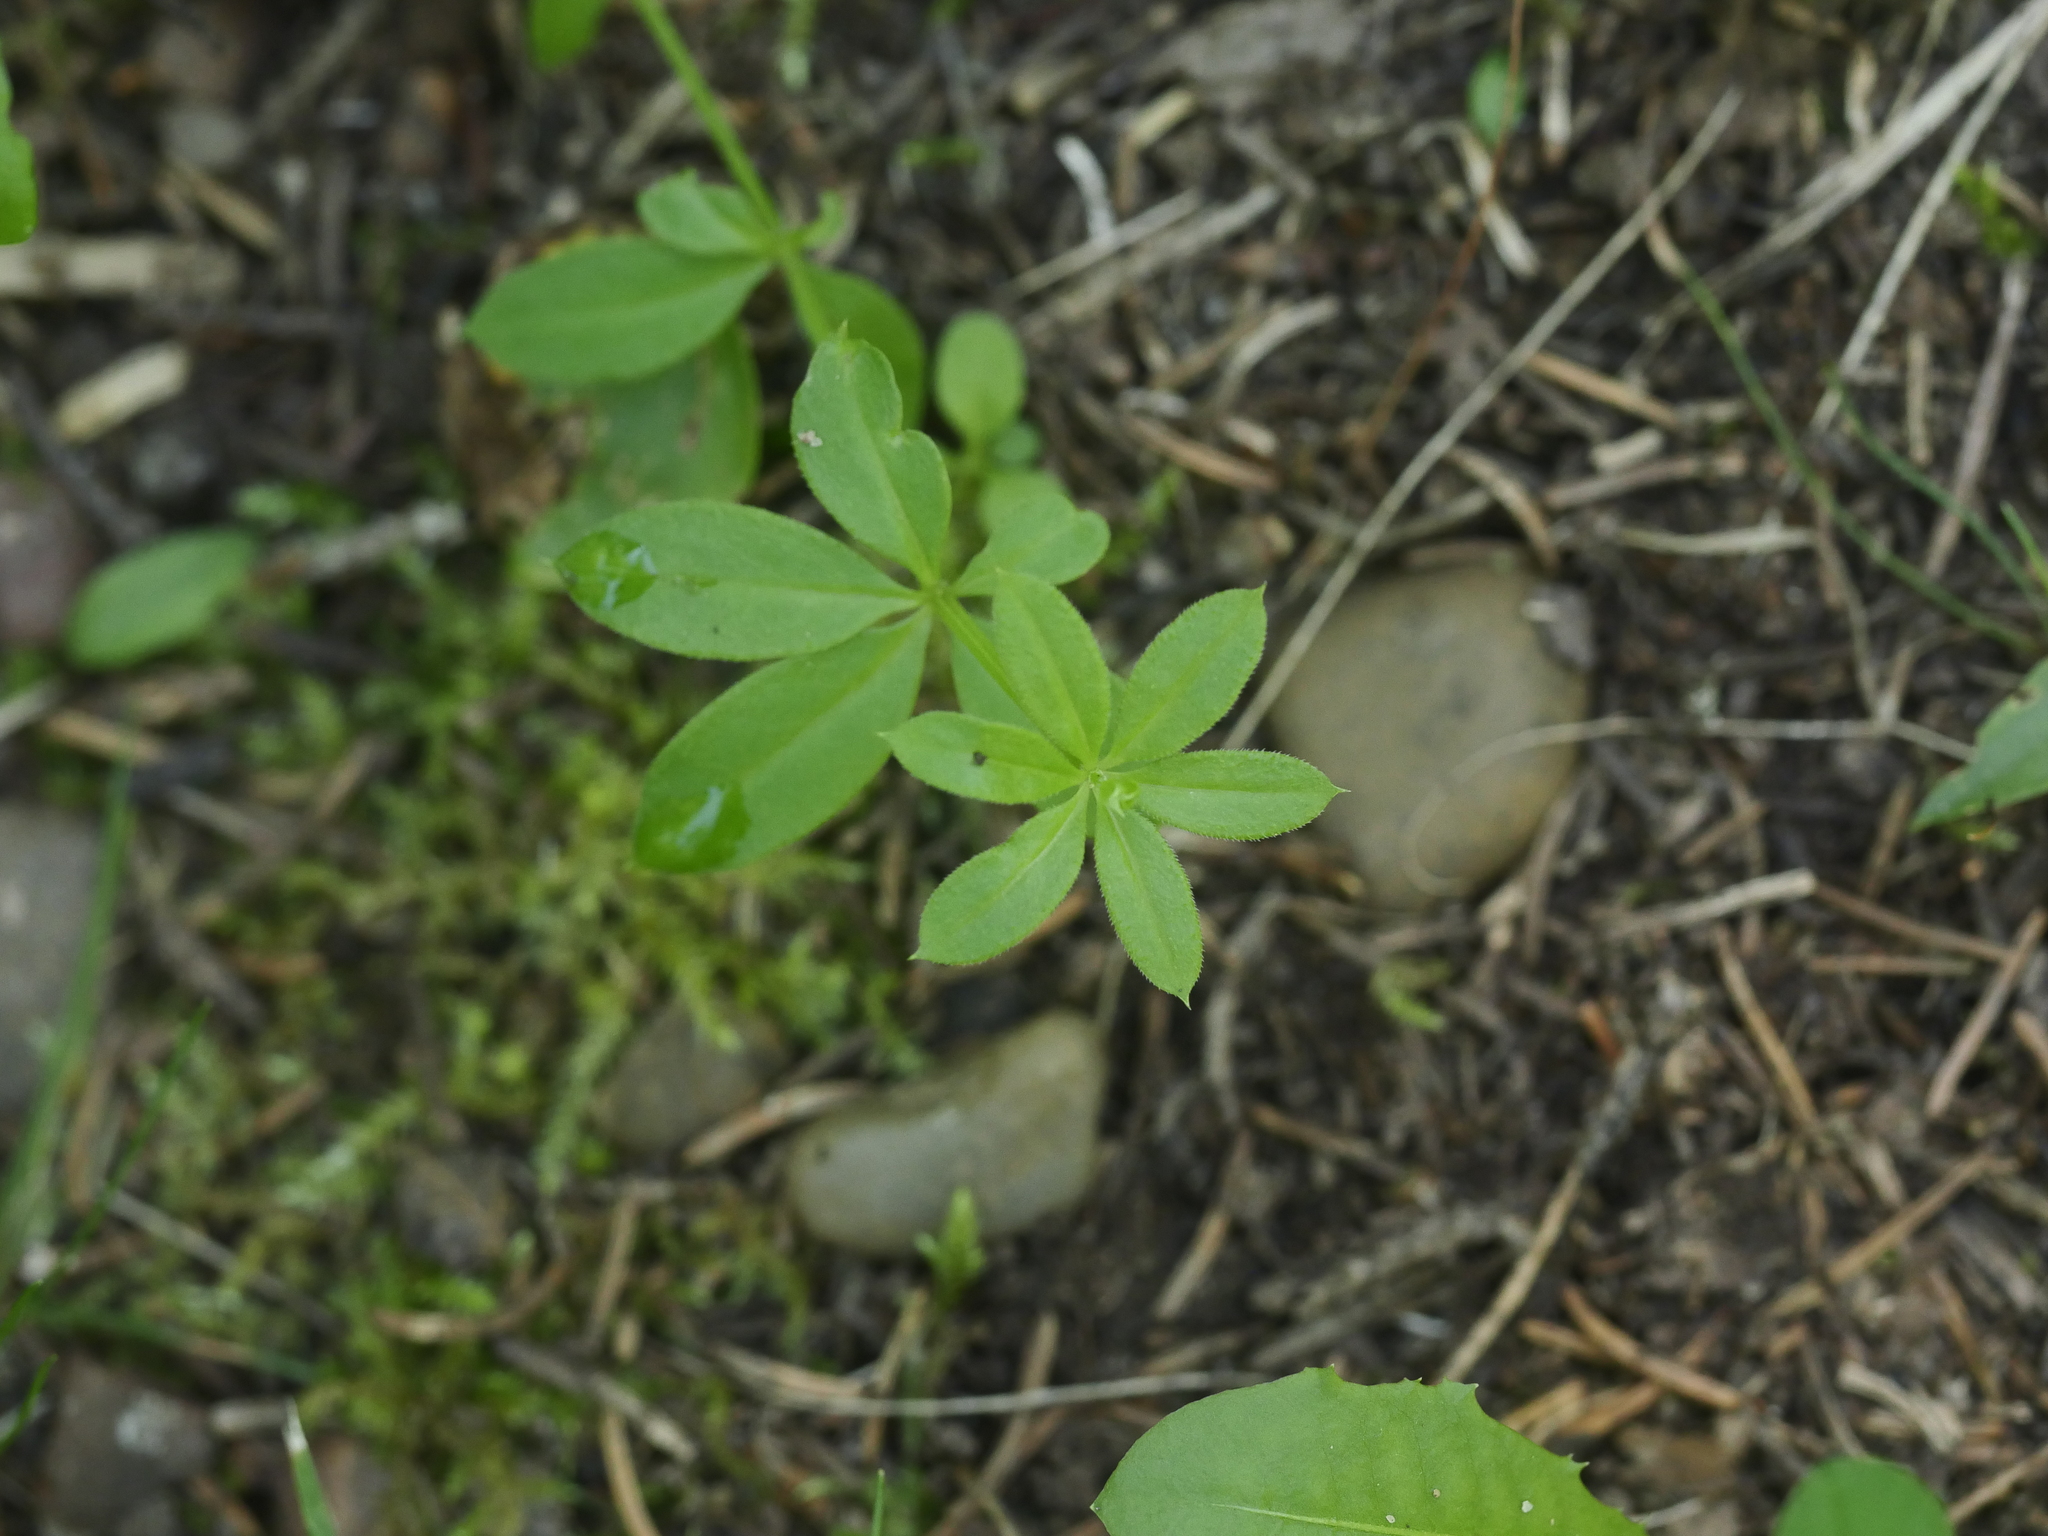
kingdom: Plantae
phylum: Tracheophyta
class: Magnoliopsida
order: Gentianales
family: Rubiaceae
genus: Galium
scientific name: Galium triflorum
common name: Fragrant bedstraw
